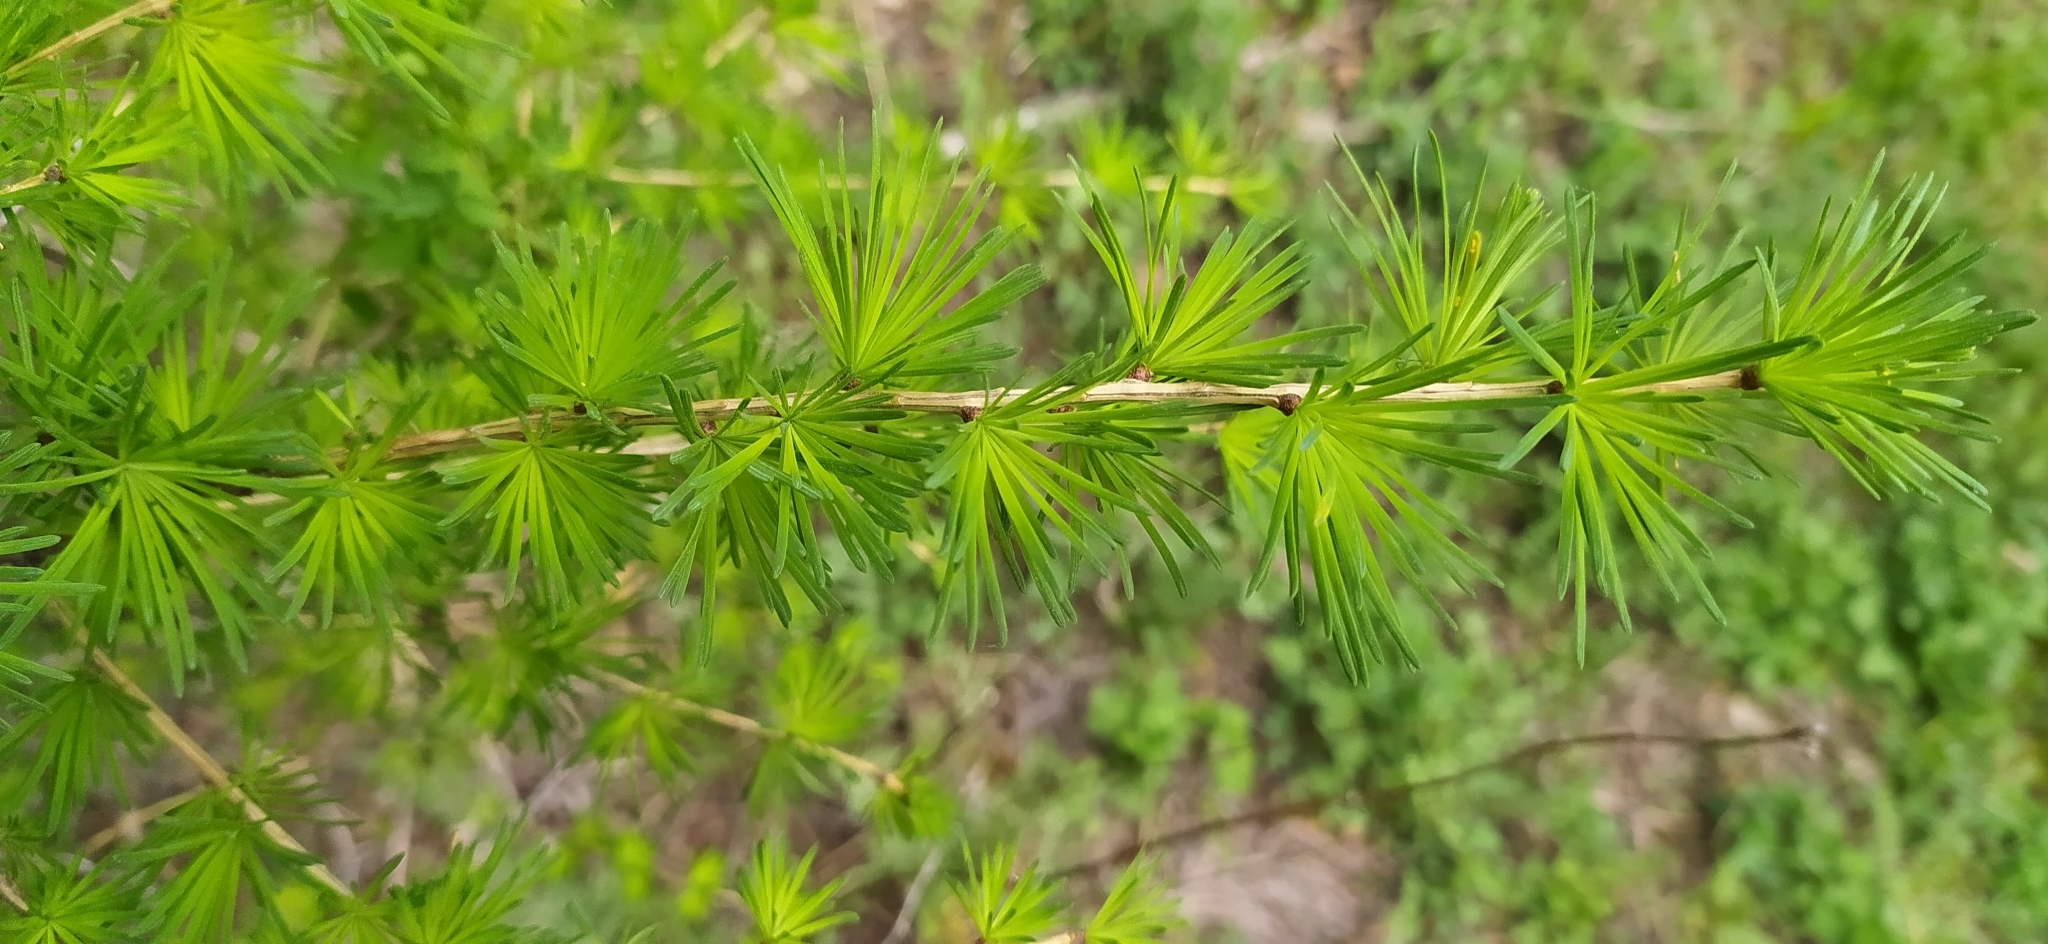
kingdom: Plantae
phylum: Tracheophyta
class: Pinopsida
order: Pinales
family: Pinaceae
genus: Larix
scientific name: Larix sibirica
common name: Siberian larch
